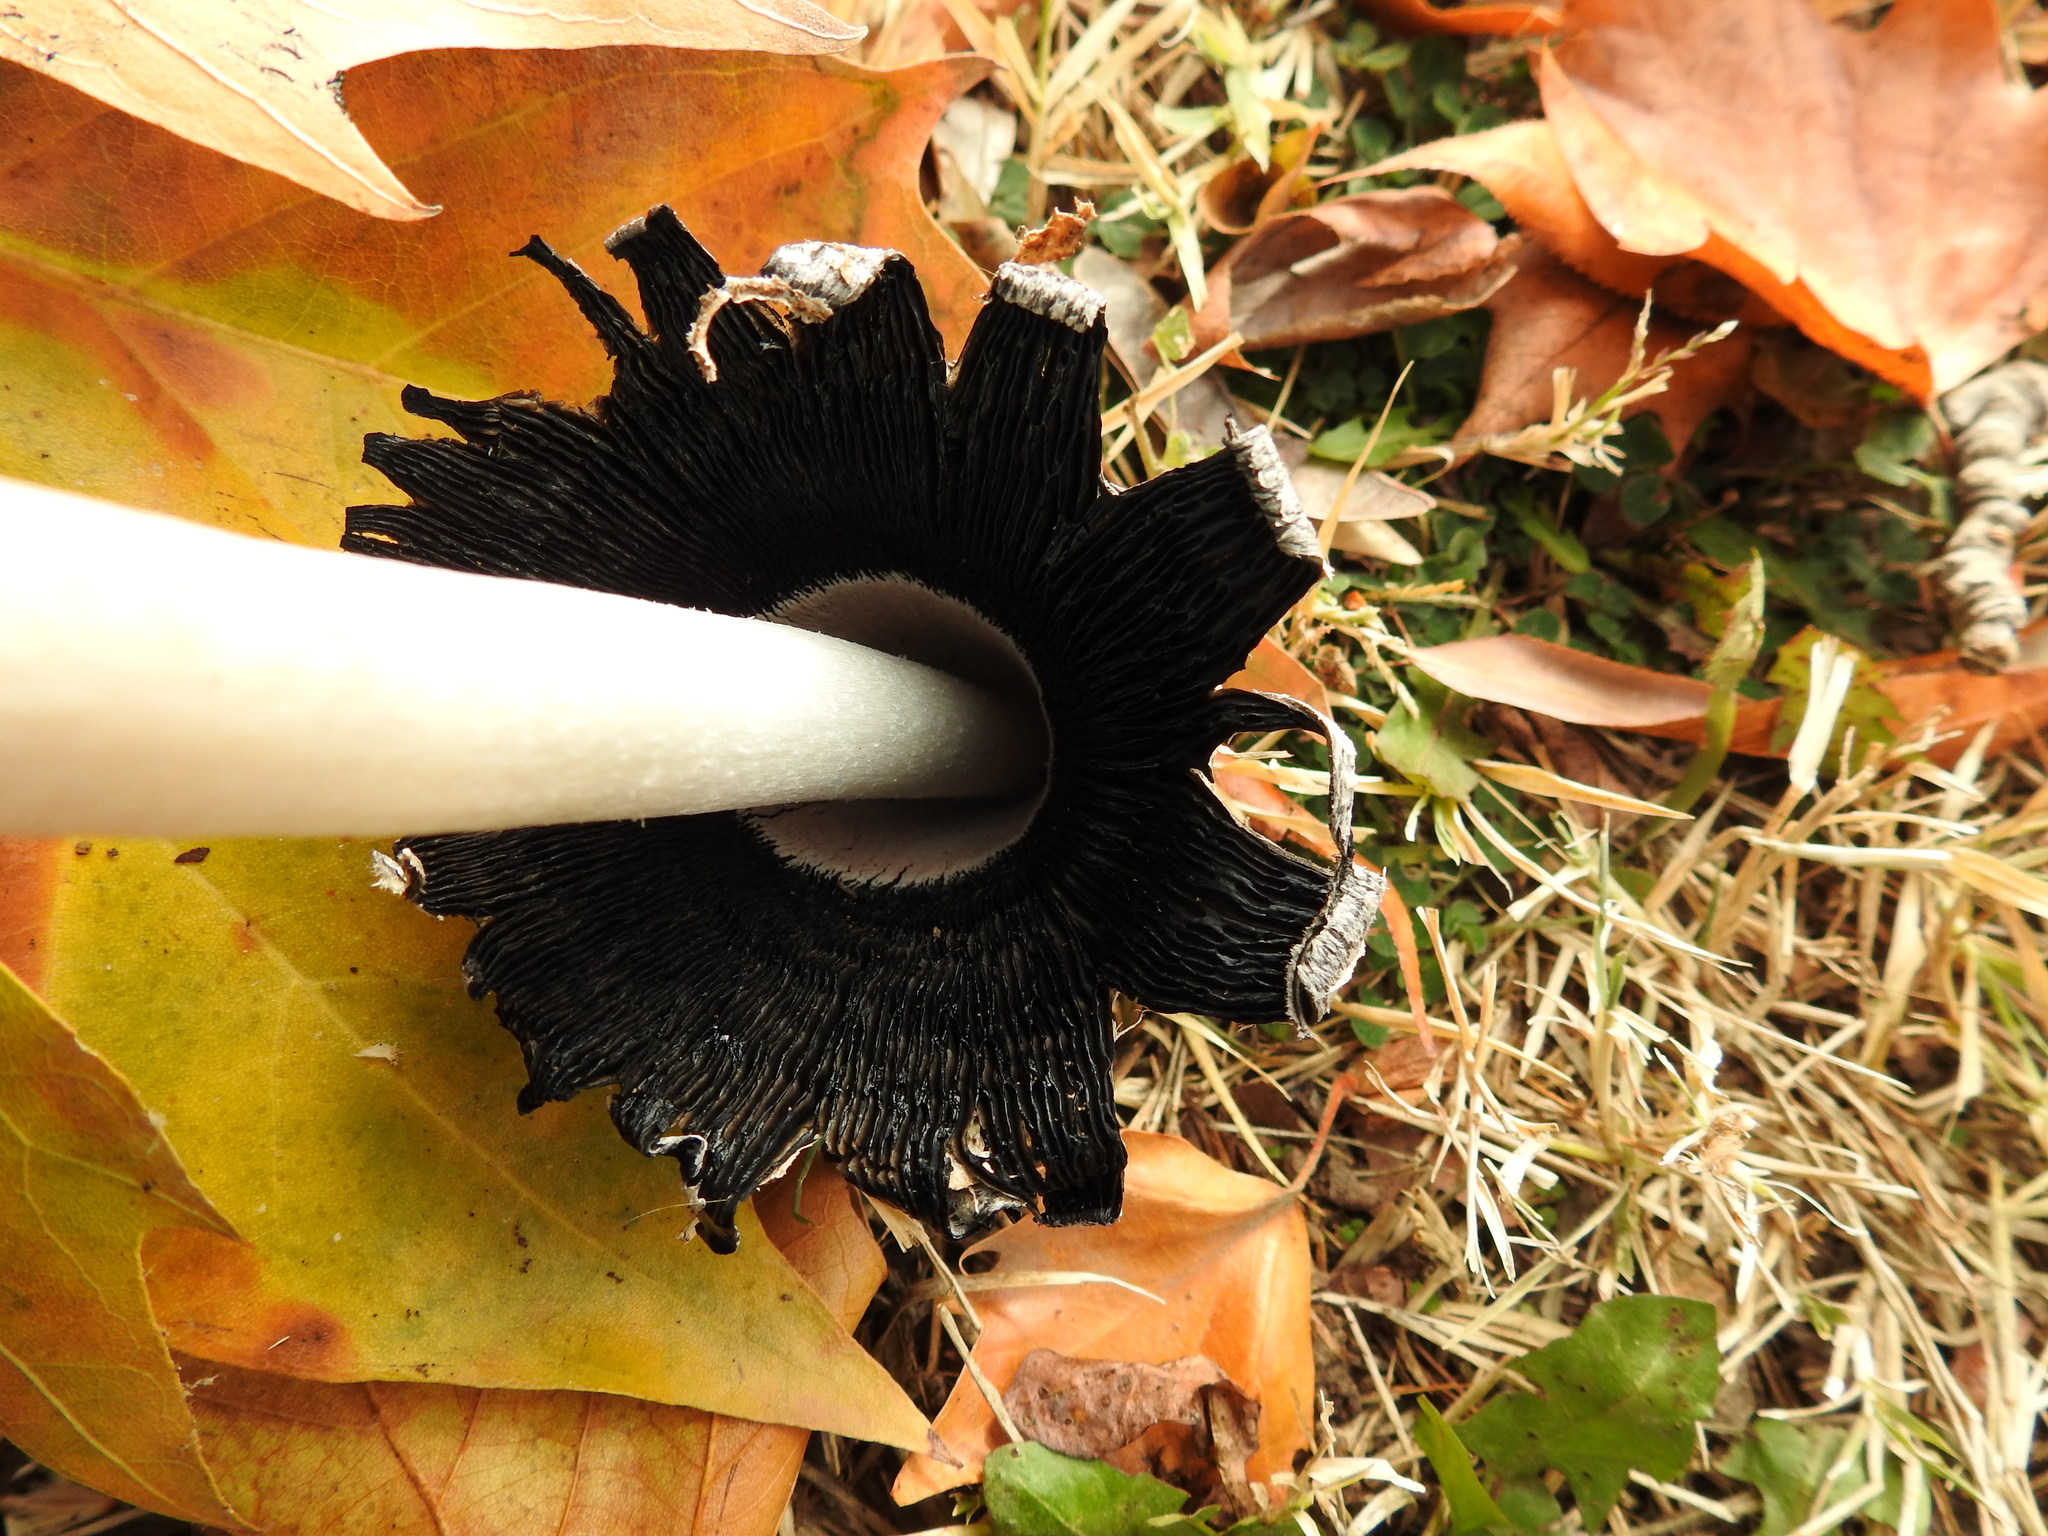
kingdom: Fungi
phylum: Basidiomycota
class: Agaricomycetes
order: Agaricales
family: Agaricaceae
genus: Coprinus
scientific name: Coprinus comatus
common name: Lawyer's wig
